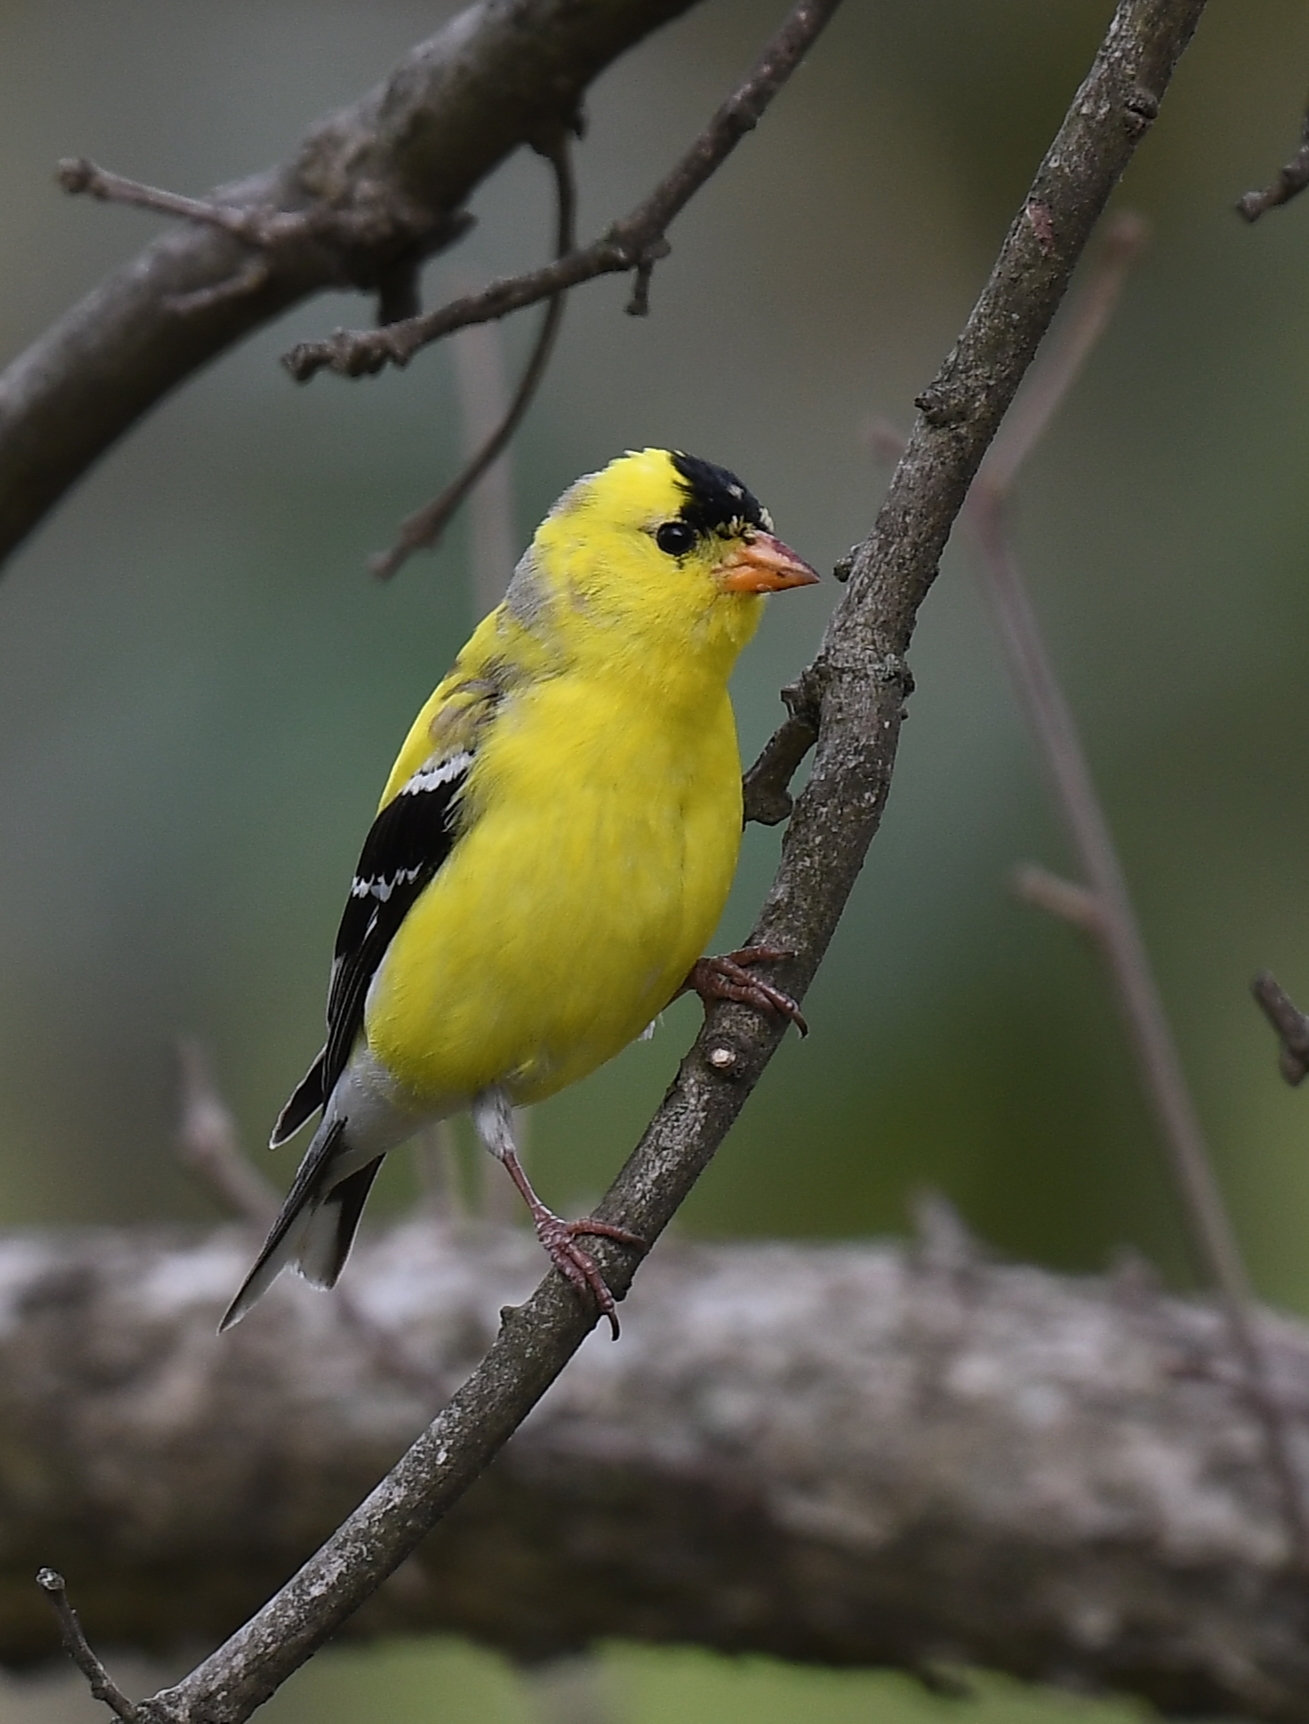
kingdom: Animalia
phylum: Chordata
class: Aves
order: Passeriformes
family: Fringillidae
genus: Spinus
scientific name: Spinus tristis
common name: American goldfinch
